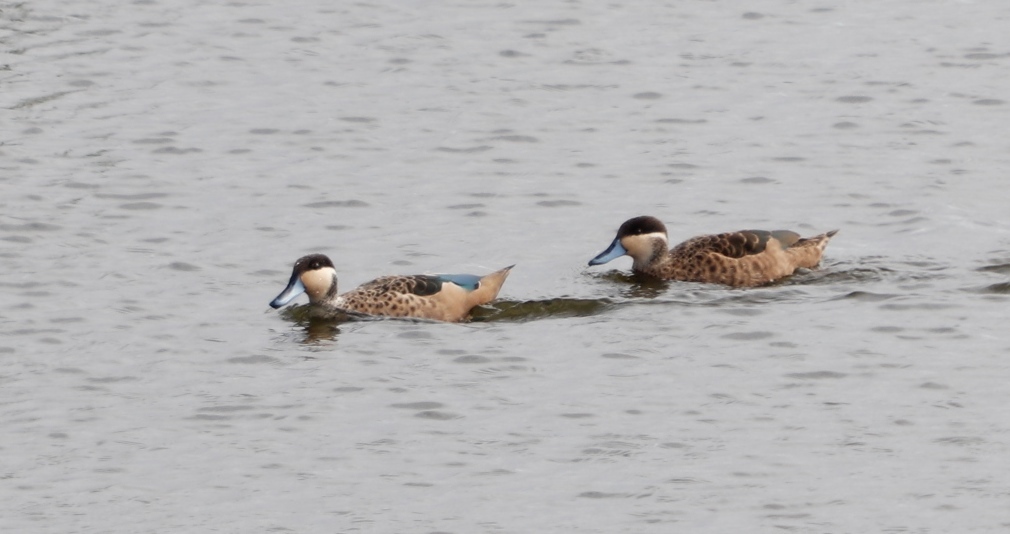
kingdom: Animalia
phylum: Chordata
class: Aves
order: Anseriformes
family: Anatidae
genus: Spatula
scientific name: Spatula hottentota
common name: Blue-billed teal
